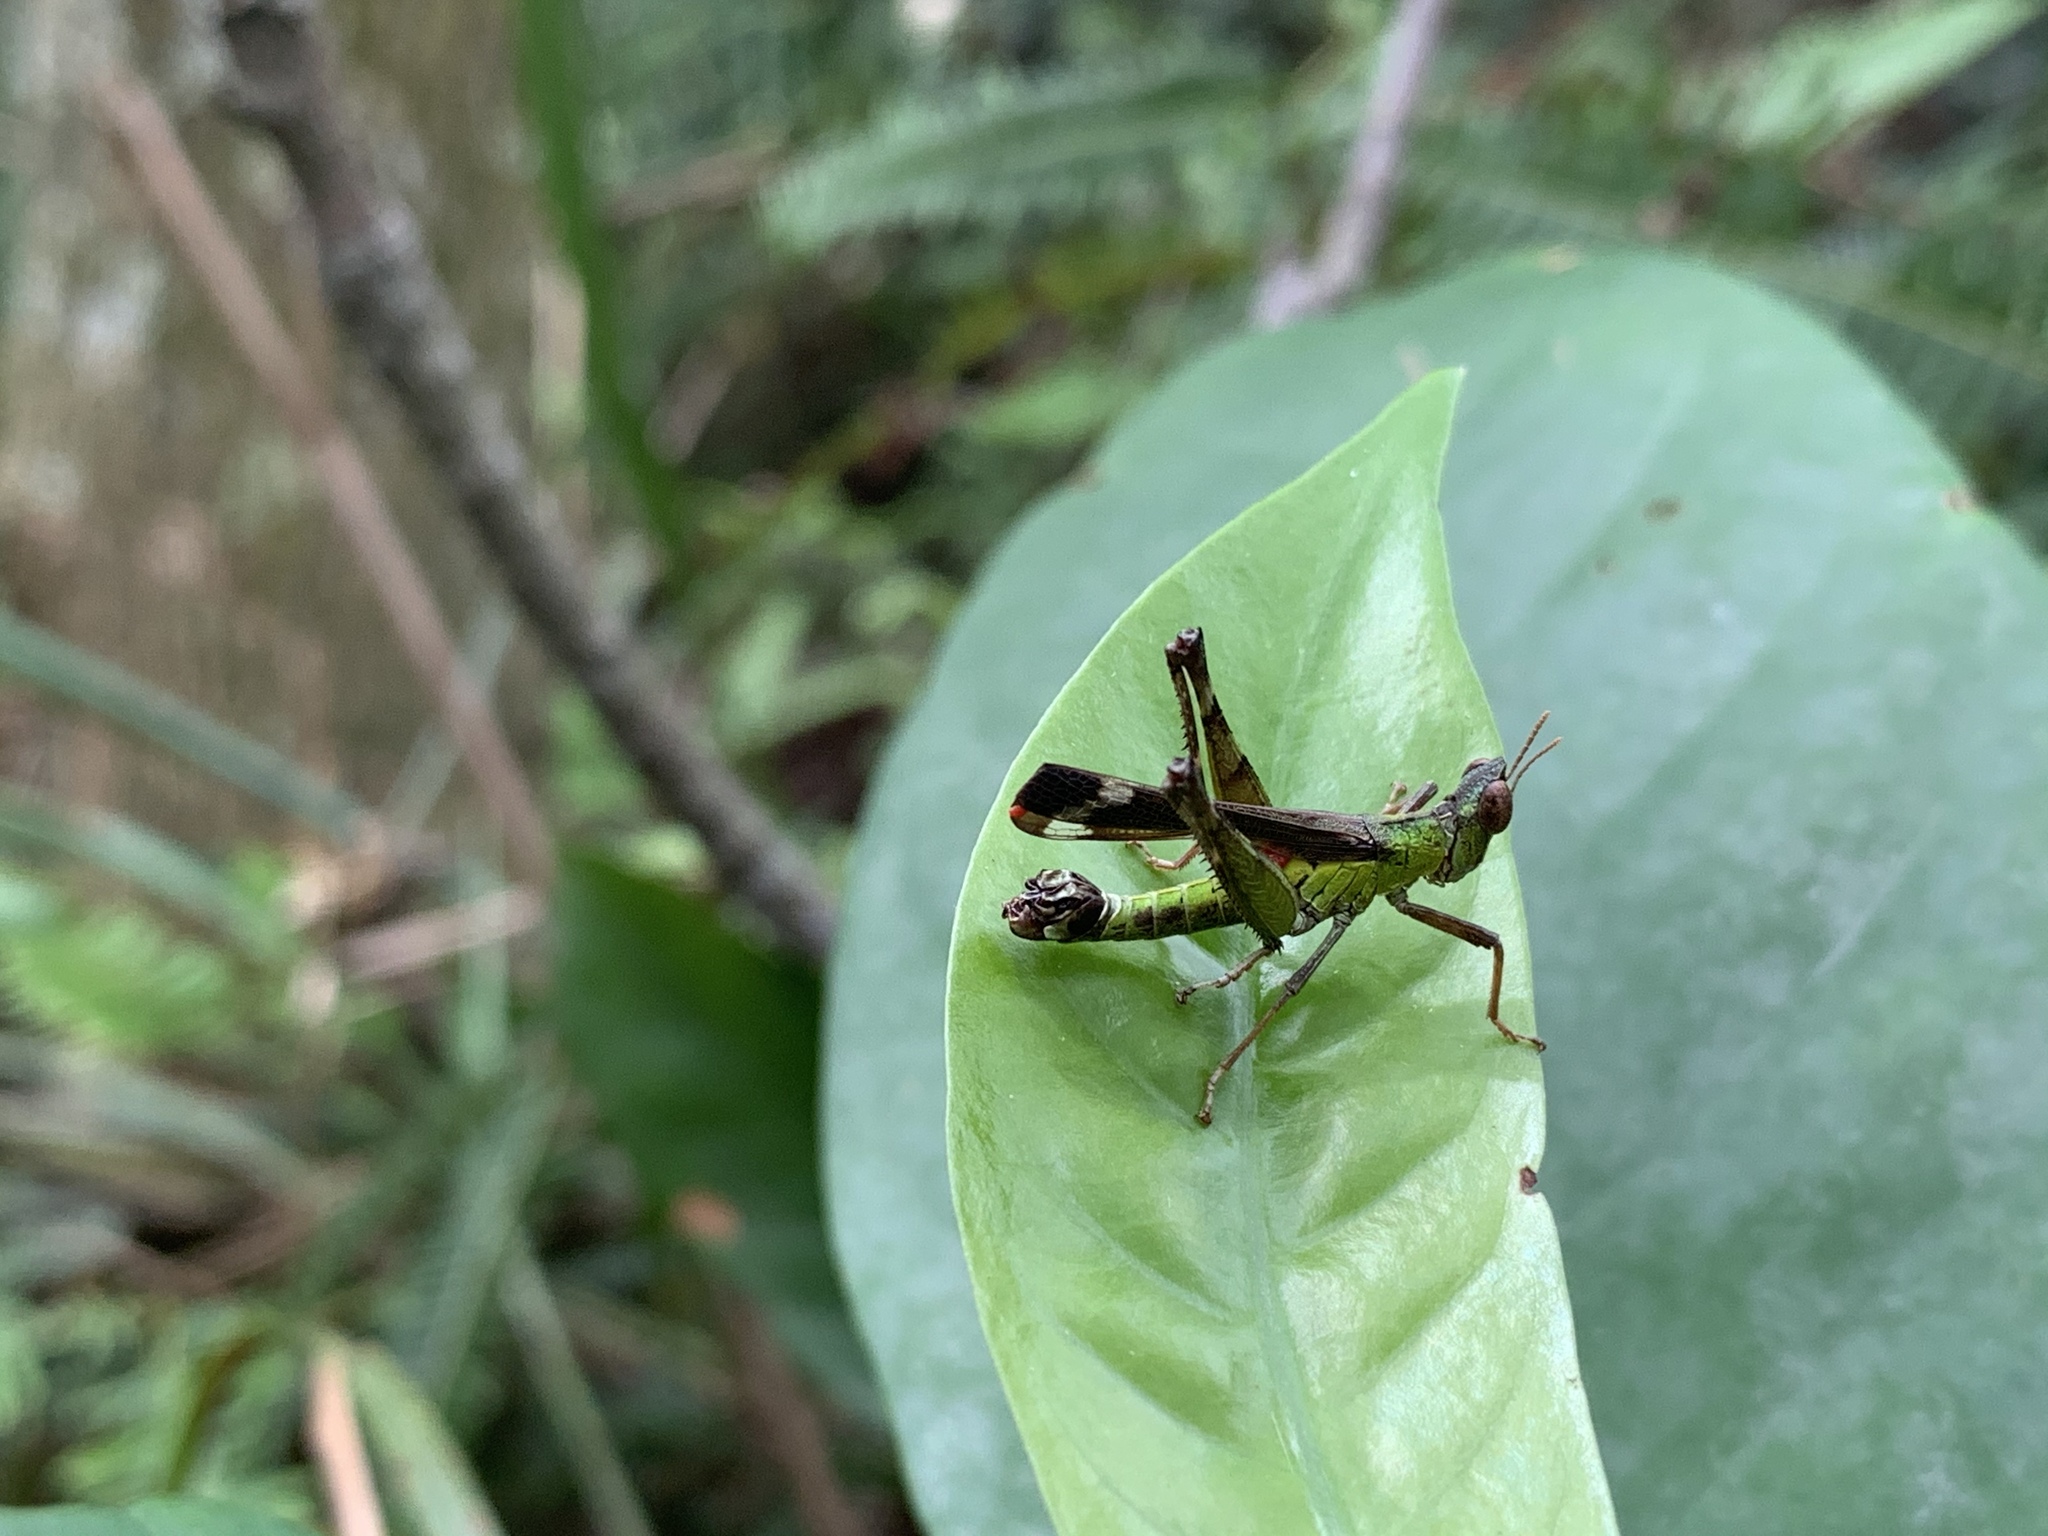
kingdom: Animalia
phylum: Arthropoda
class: Insecta
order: Orthoptera
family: Chorotypidae
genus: Erianthella
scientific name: Erianthella formosana
